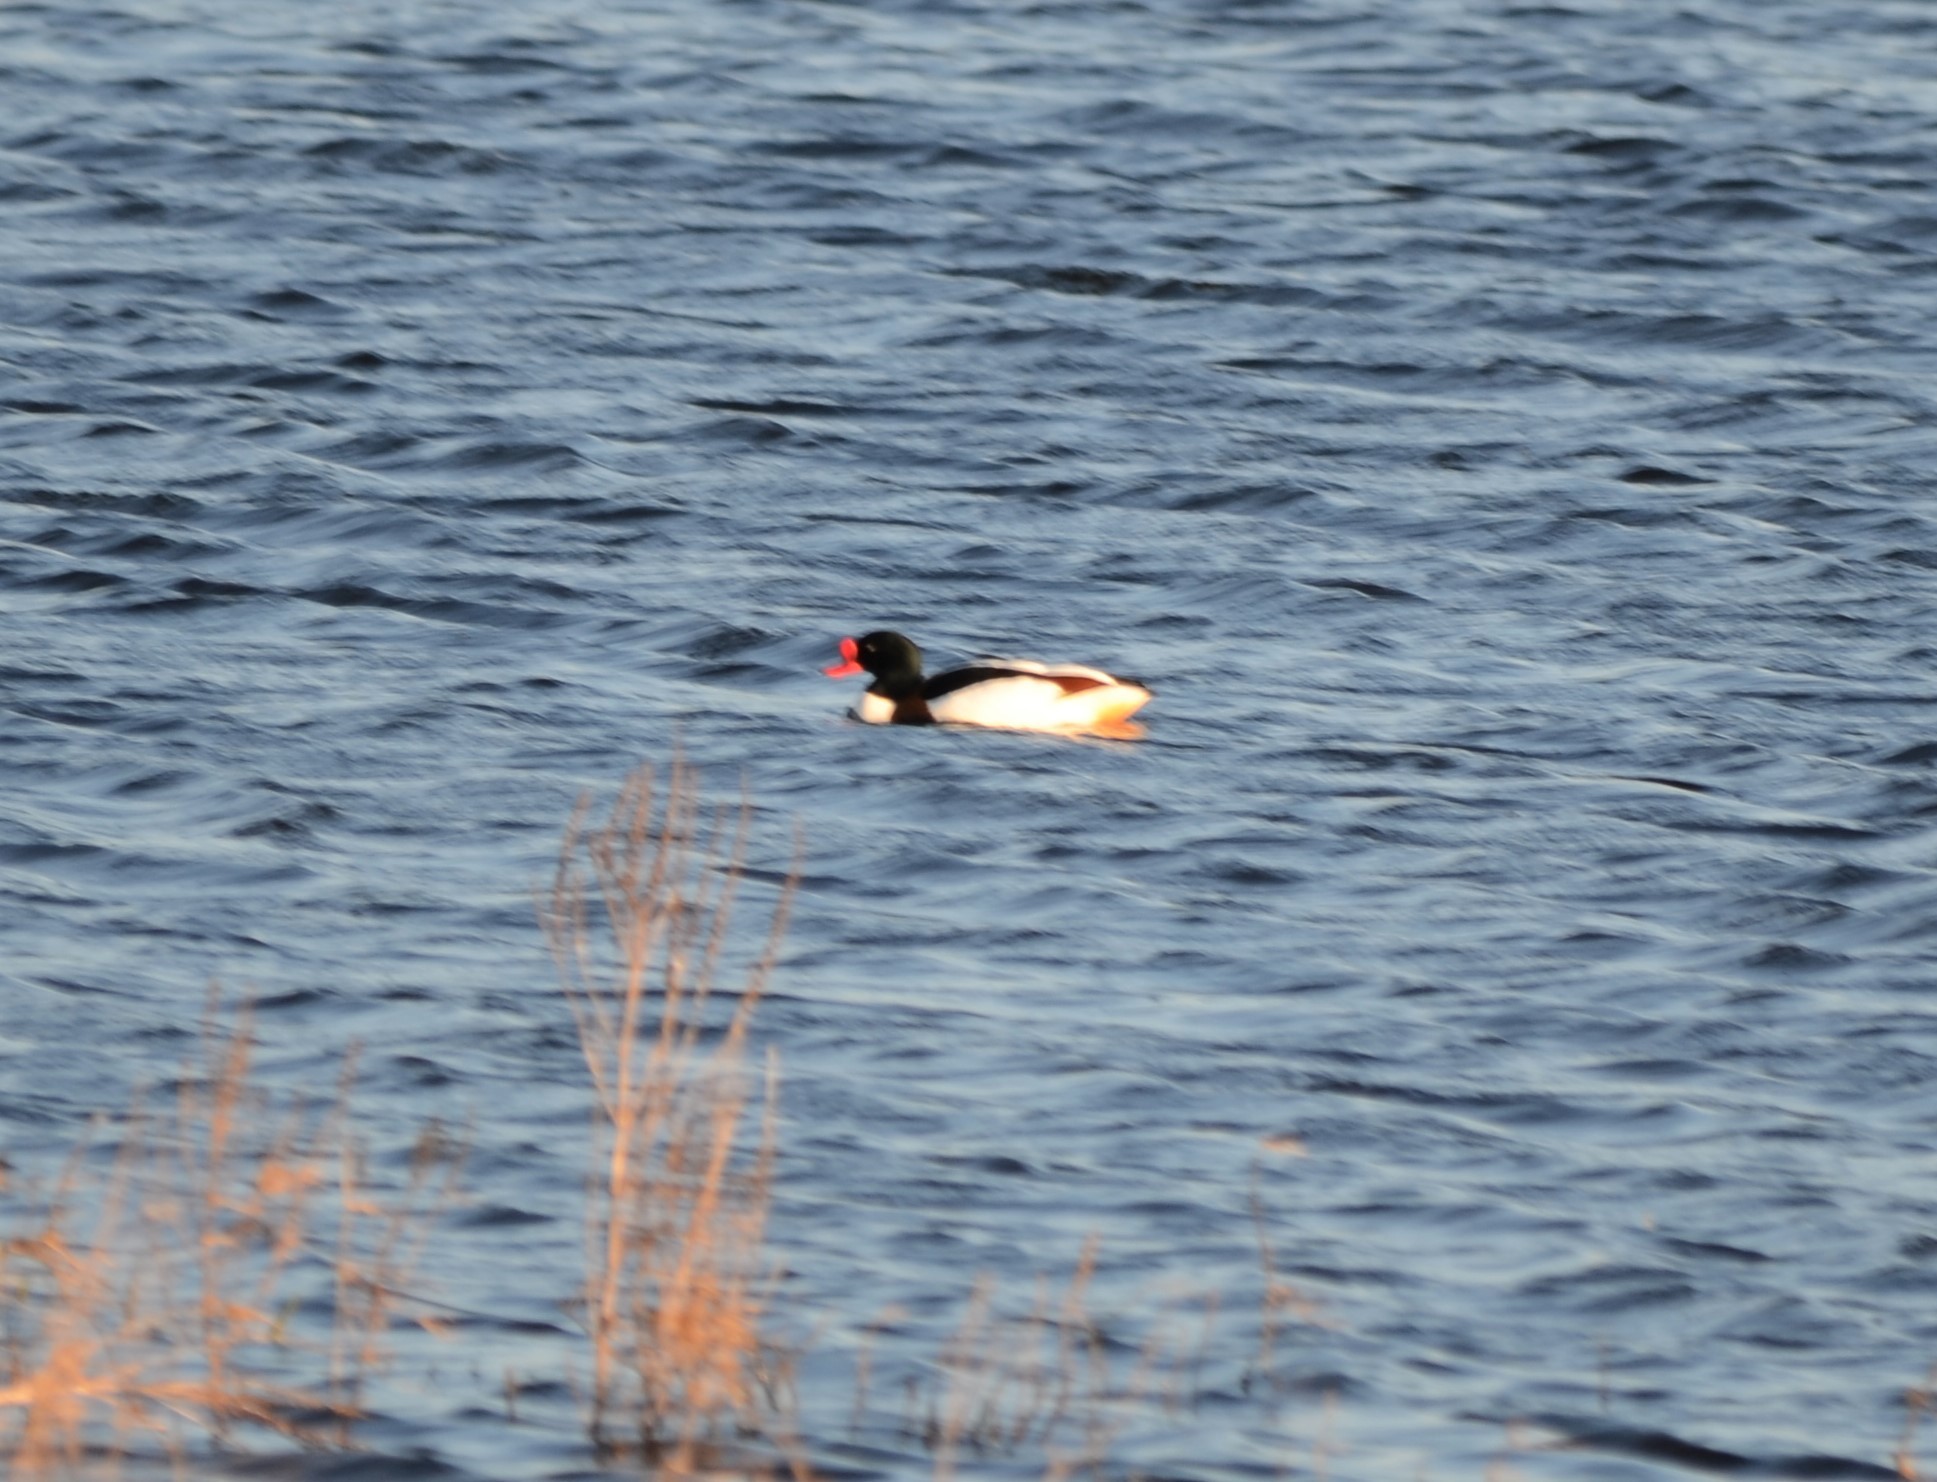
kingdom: Animalia
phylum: Chordata
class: Aves
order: Anseriformes
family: Anatidae
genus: Tadorna
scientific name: Tadorna tadorna
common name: Common shelduck
